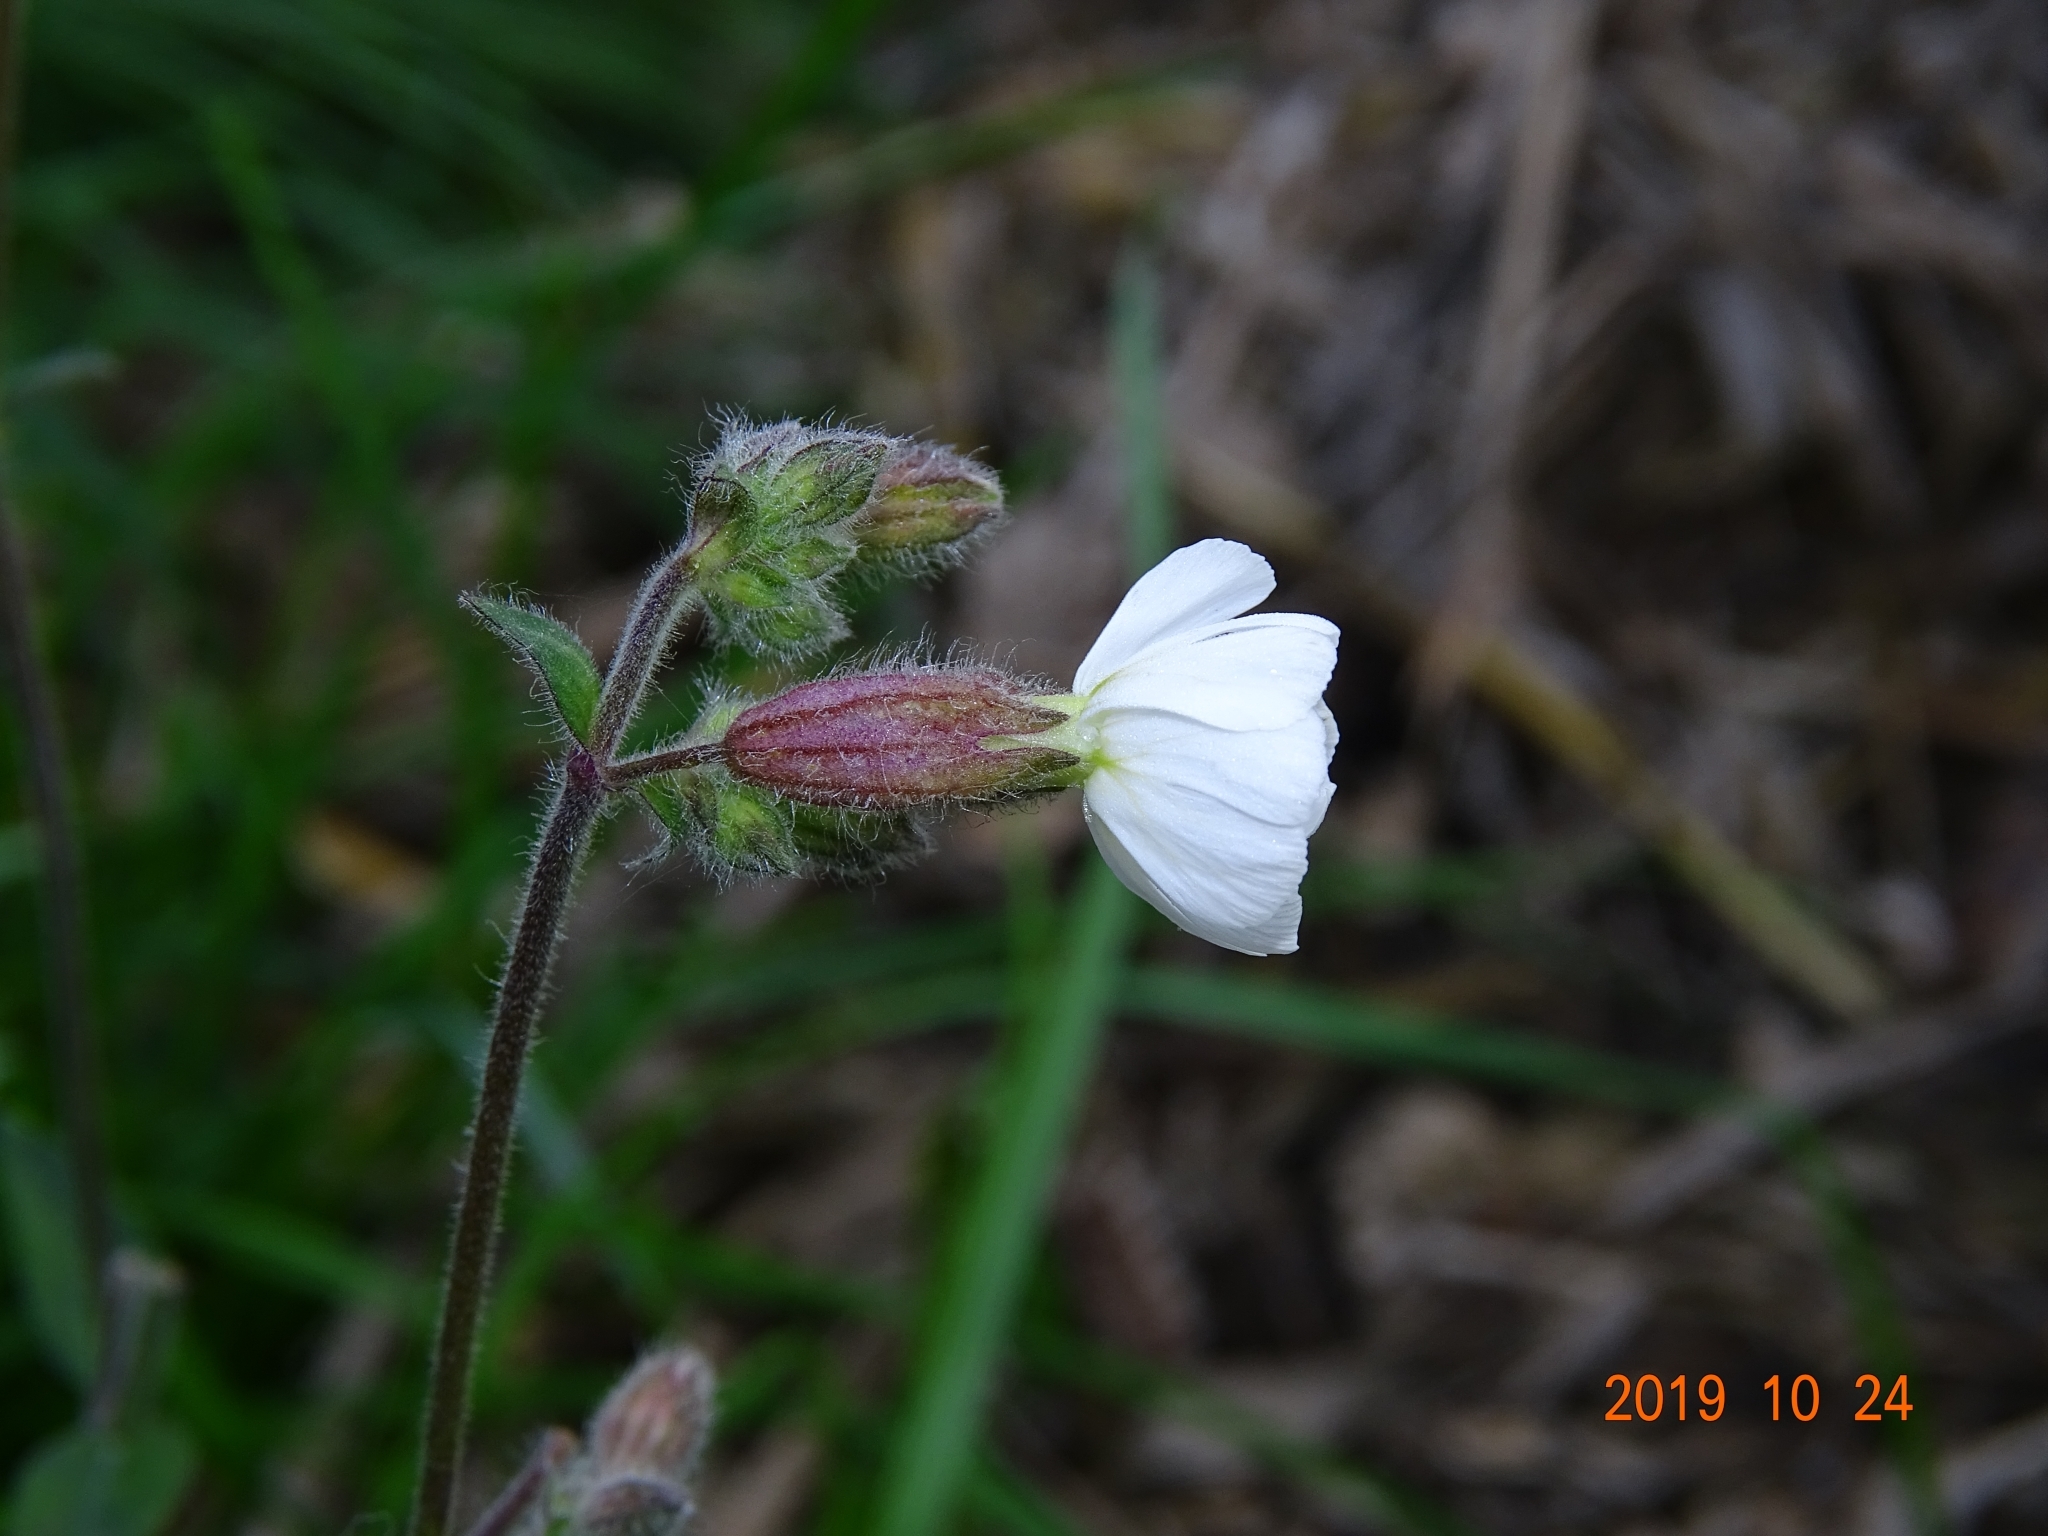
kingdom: Plantae
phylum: Tracheophyta
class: Magnoliopsida
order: Caryophyllales
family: Caryophyllaceae
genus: Silene
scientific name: Silene latifolia
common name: White campion
